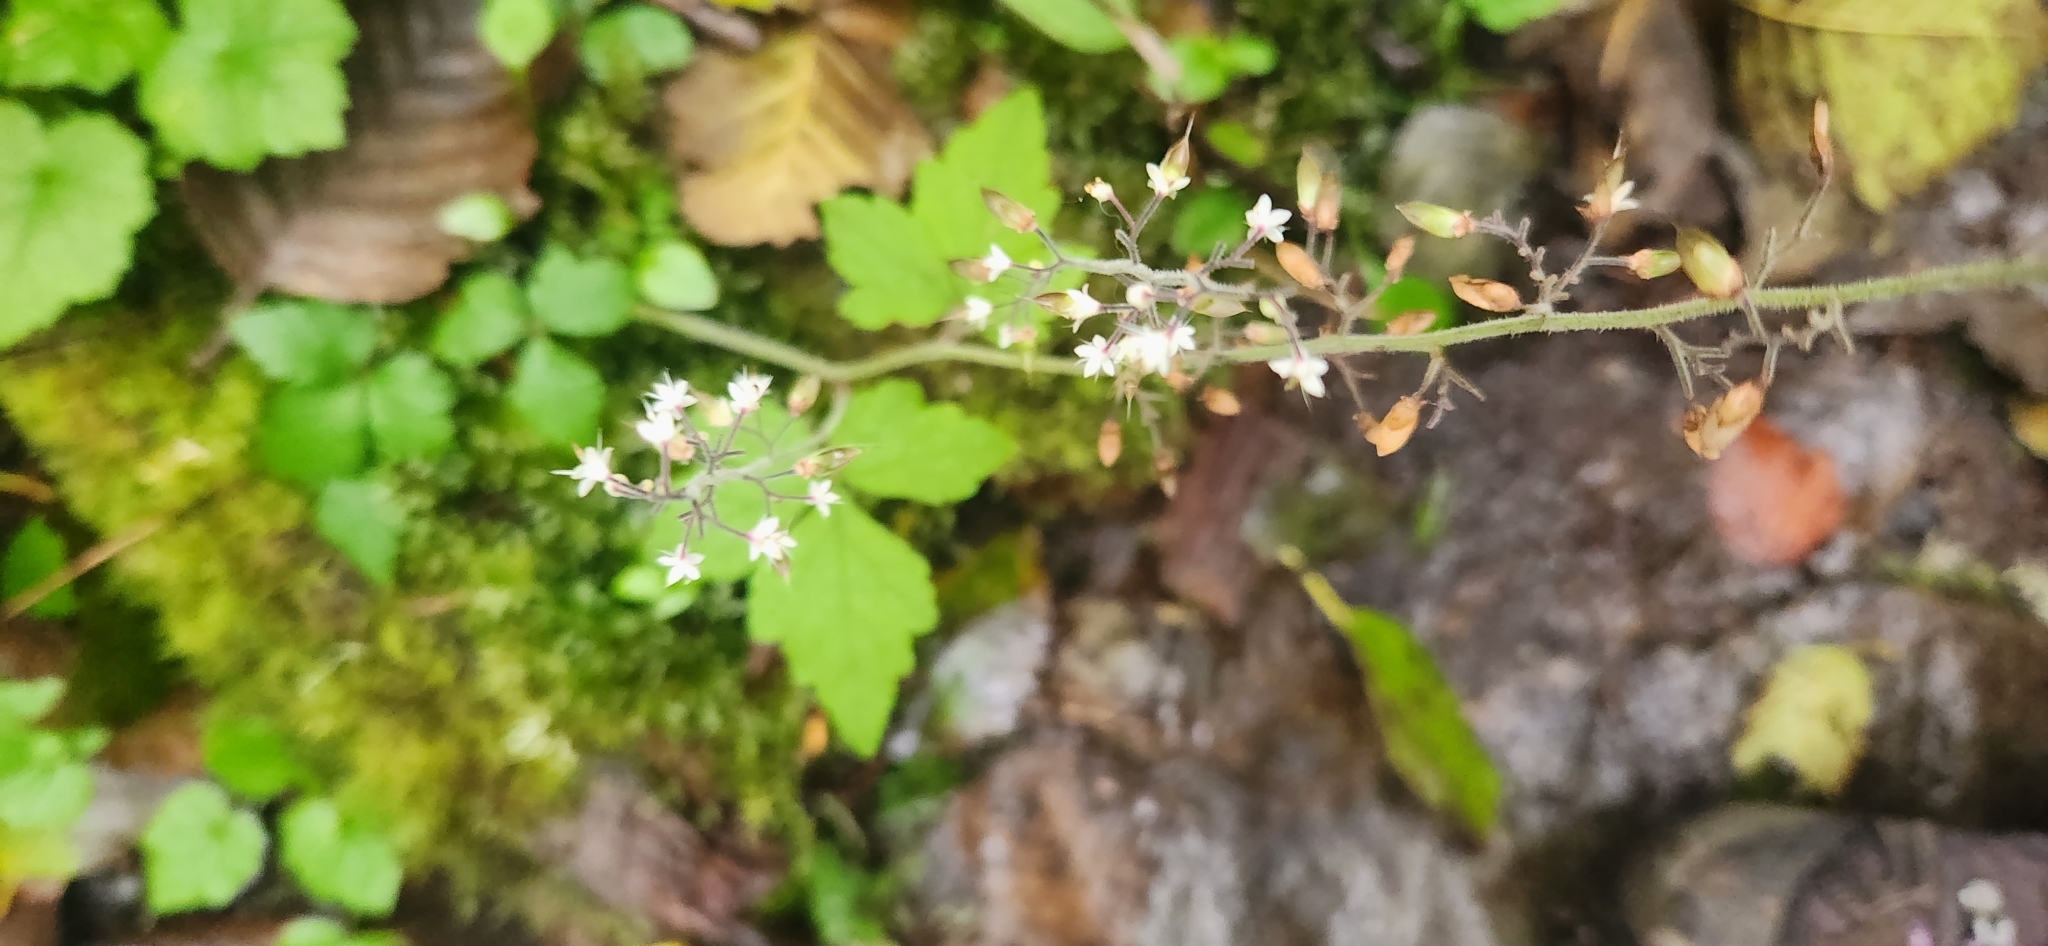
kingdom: Plantae
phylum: Tracheophyta
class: Magnoliopsida
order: Saxifragales
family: Saxifragaceae
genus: Tiarella
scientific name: Tiarella trifoliata
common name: Sugar-scoop
